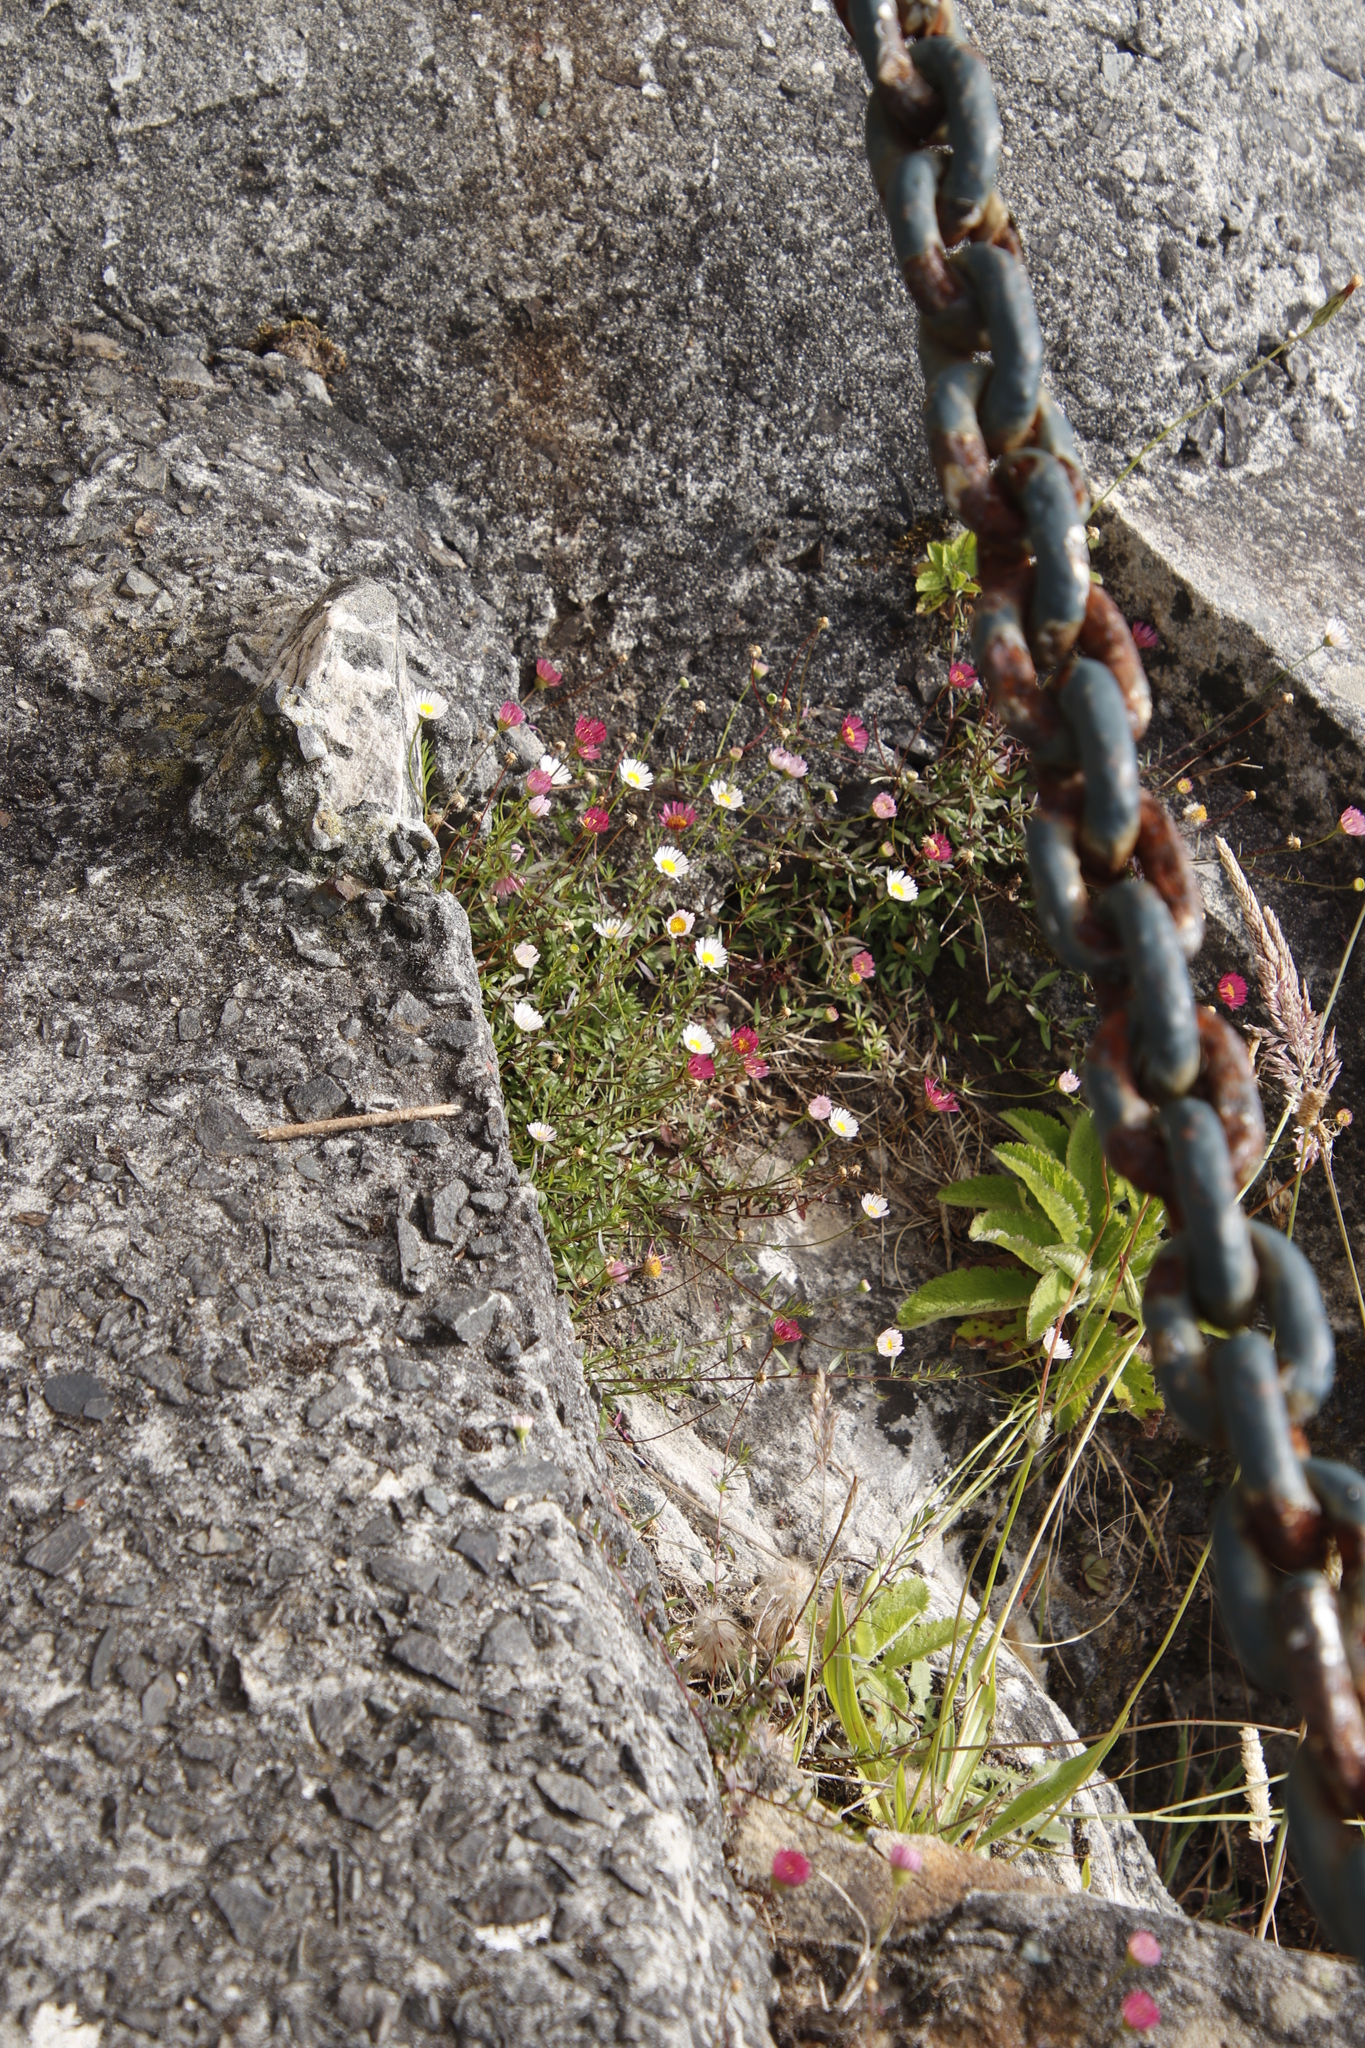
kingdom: Plantae
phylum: Tracheophyta
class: Magnoliopsida
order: Asterales
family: Asteraceae
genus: Erigeron
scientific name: Erigeron karvinskianus
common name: Mexican fleabane
